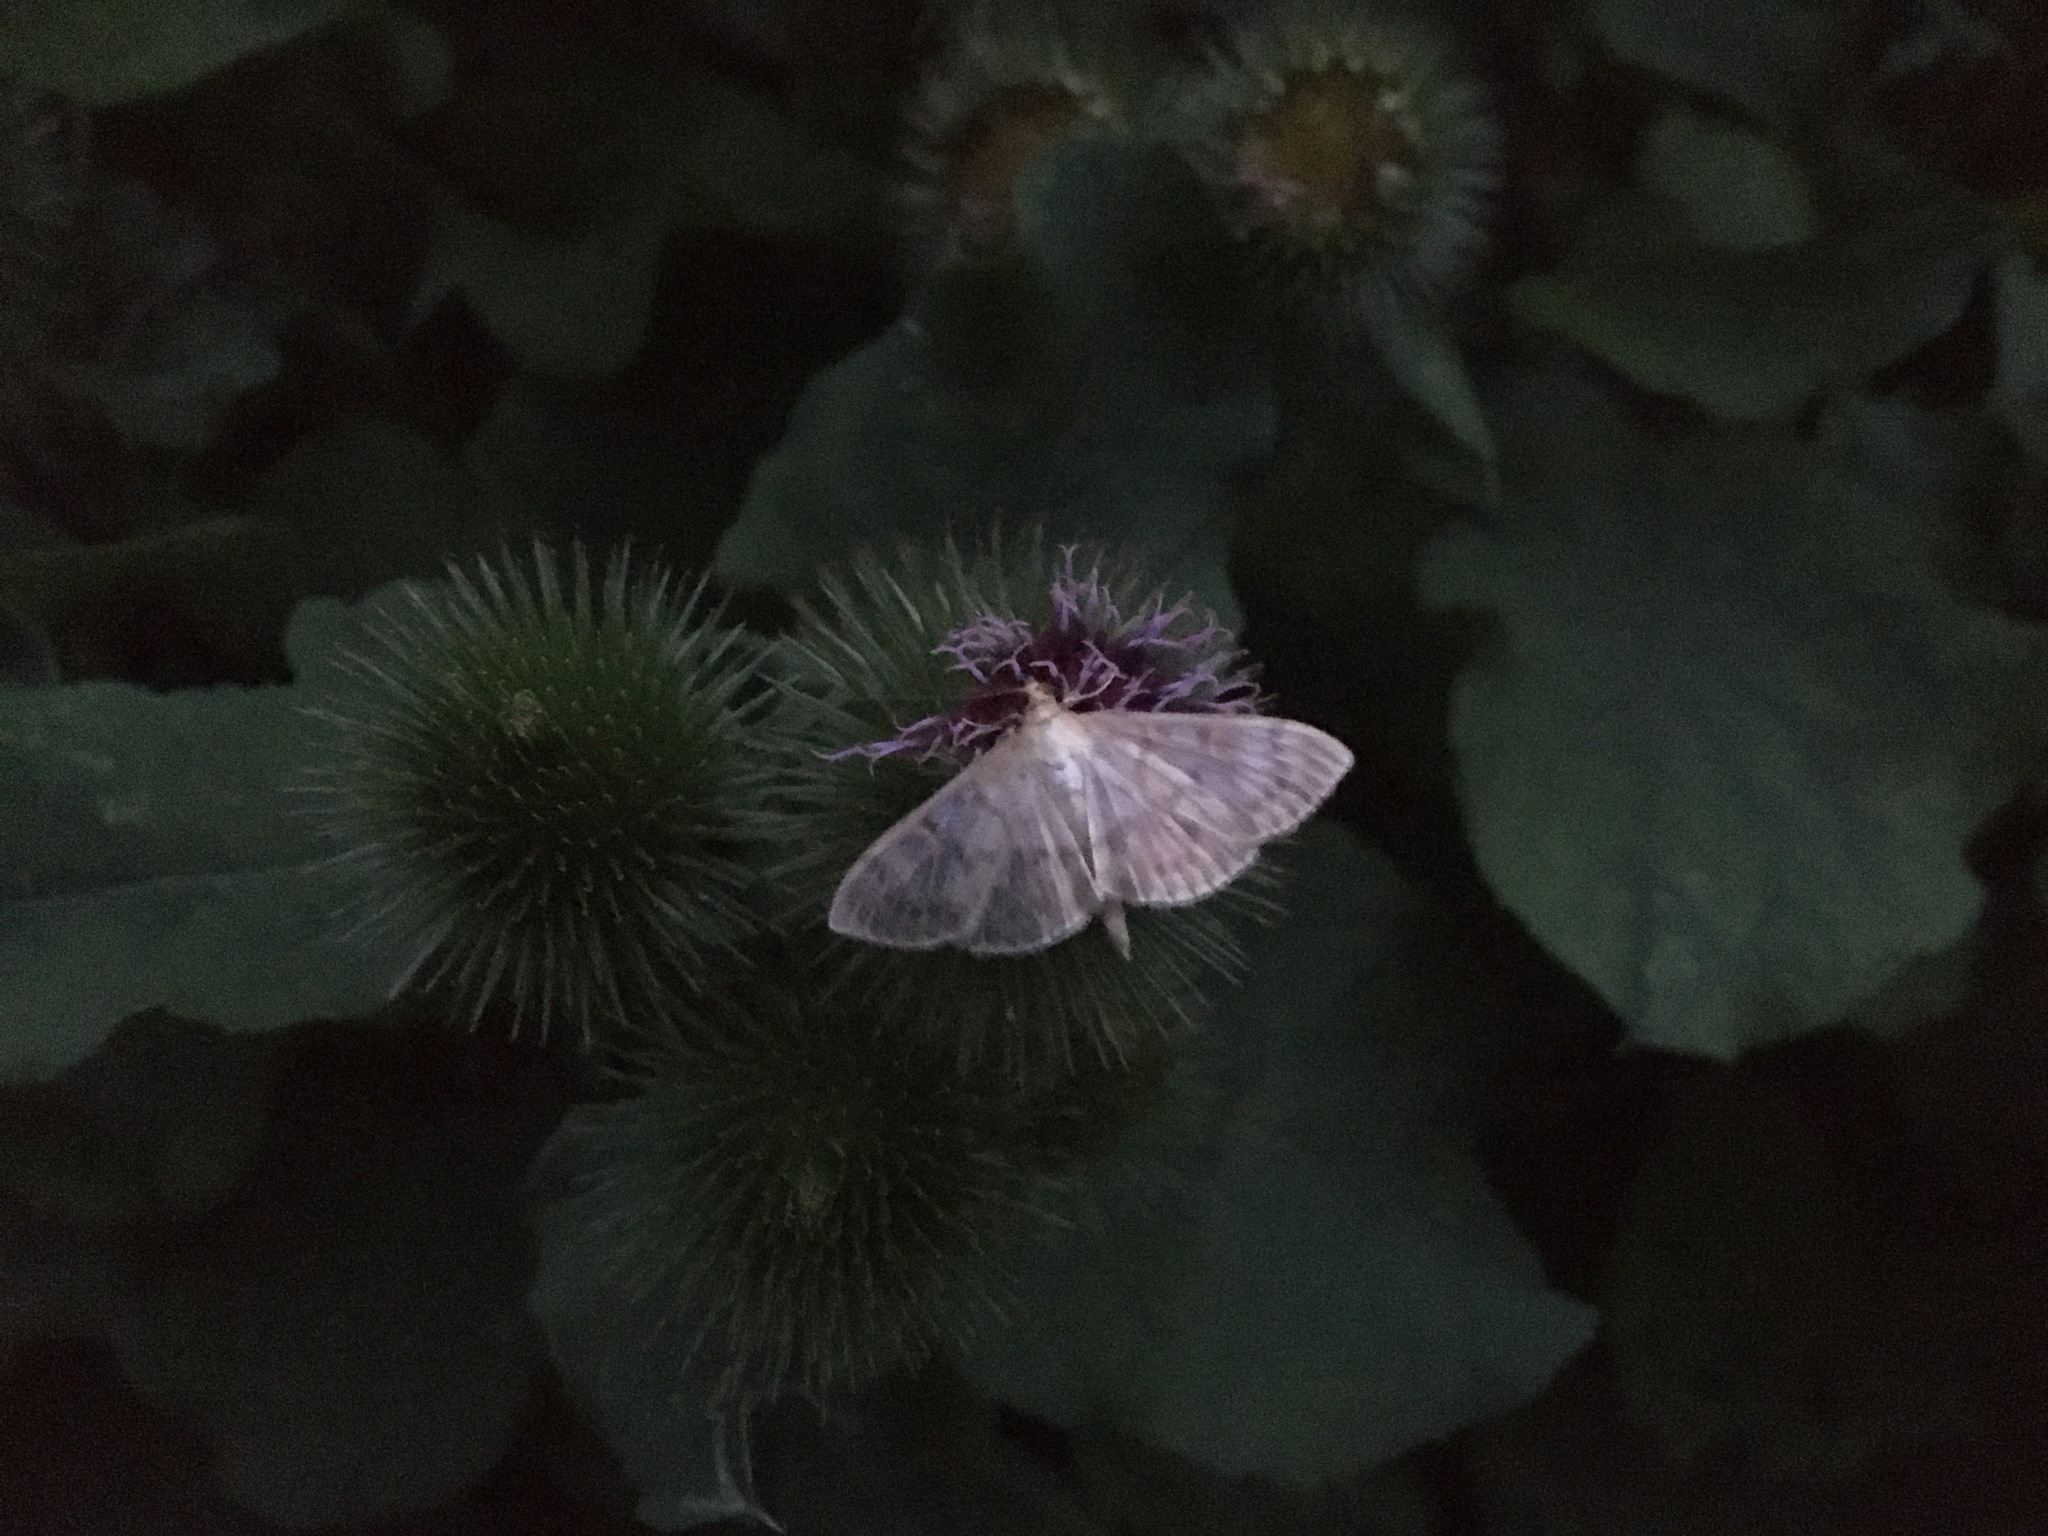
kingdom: Animalia
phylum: Arthropoda
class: Insecta
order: Lepidoptera
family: Crambidae
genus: Patania
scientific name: Patania ruralis
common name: Mother of pearl
